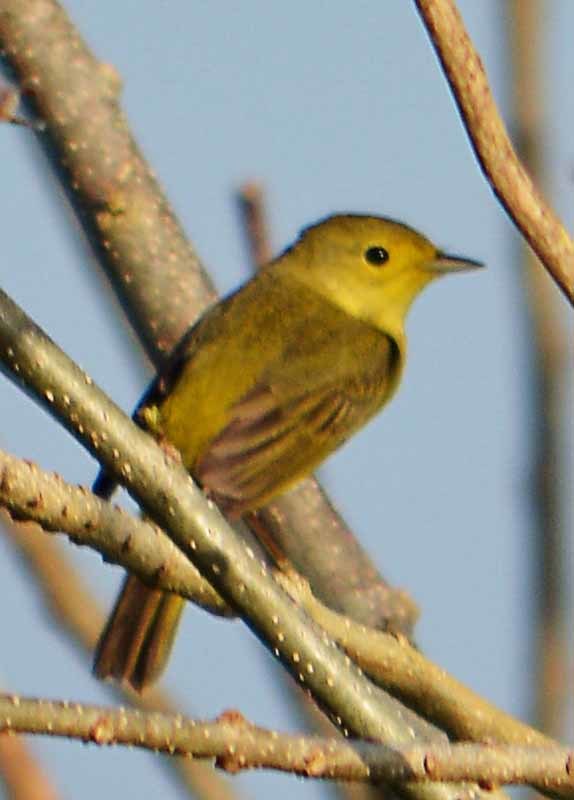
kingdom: Animalia
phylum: Chordata
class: Aves
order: Passeriformes
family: Parulidae
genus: Setophaga
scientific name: Setophaga petechia
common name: Yellow warbler
